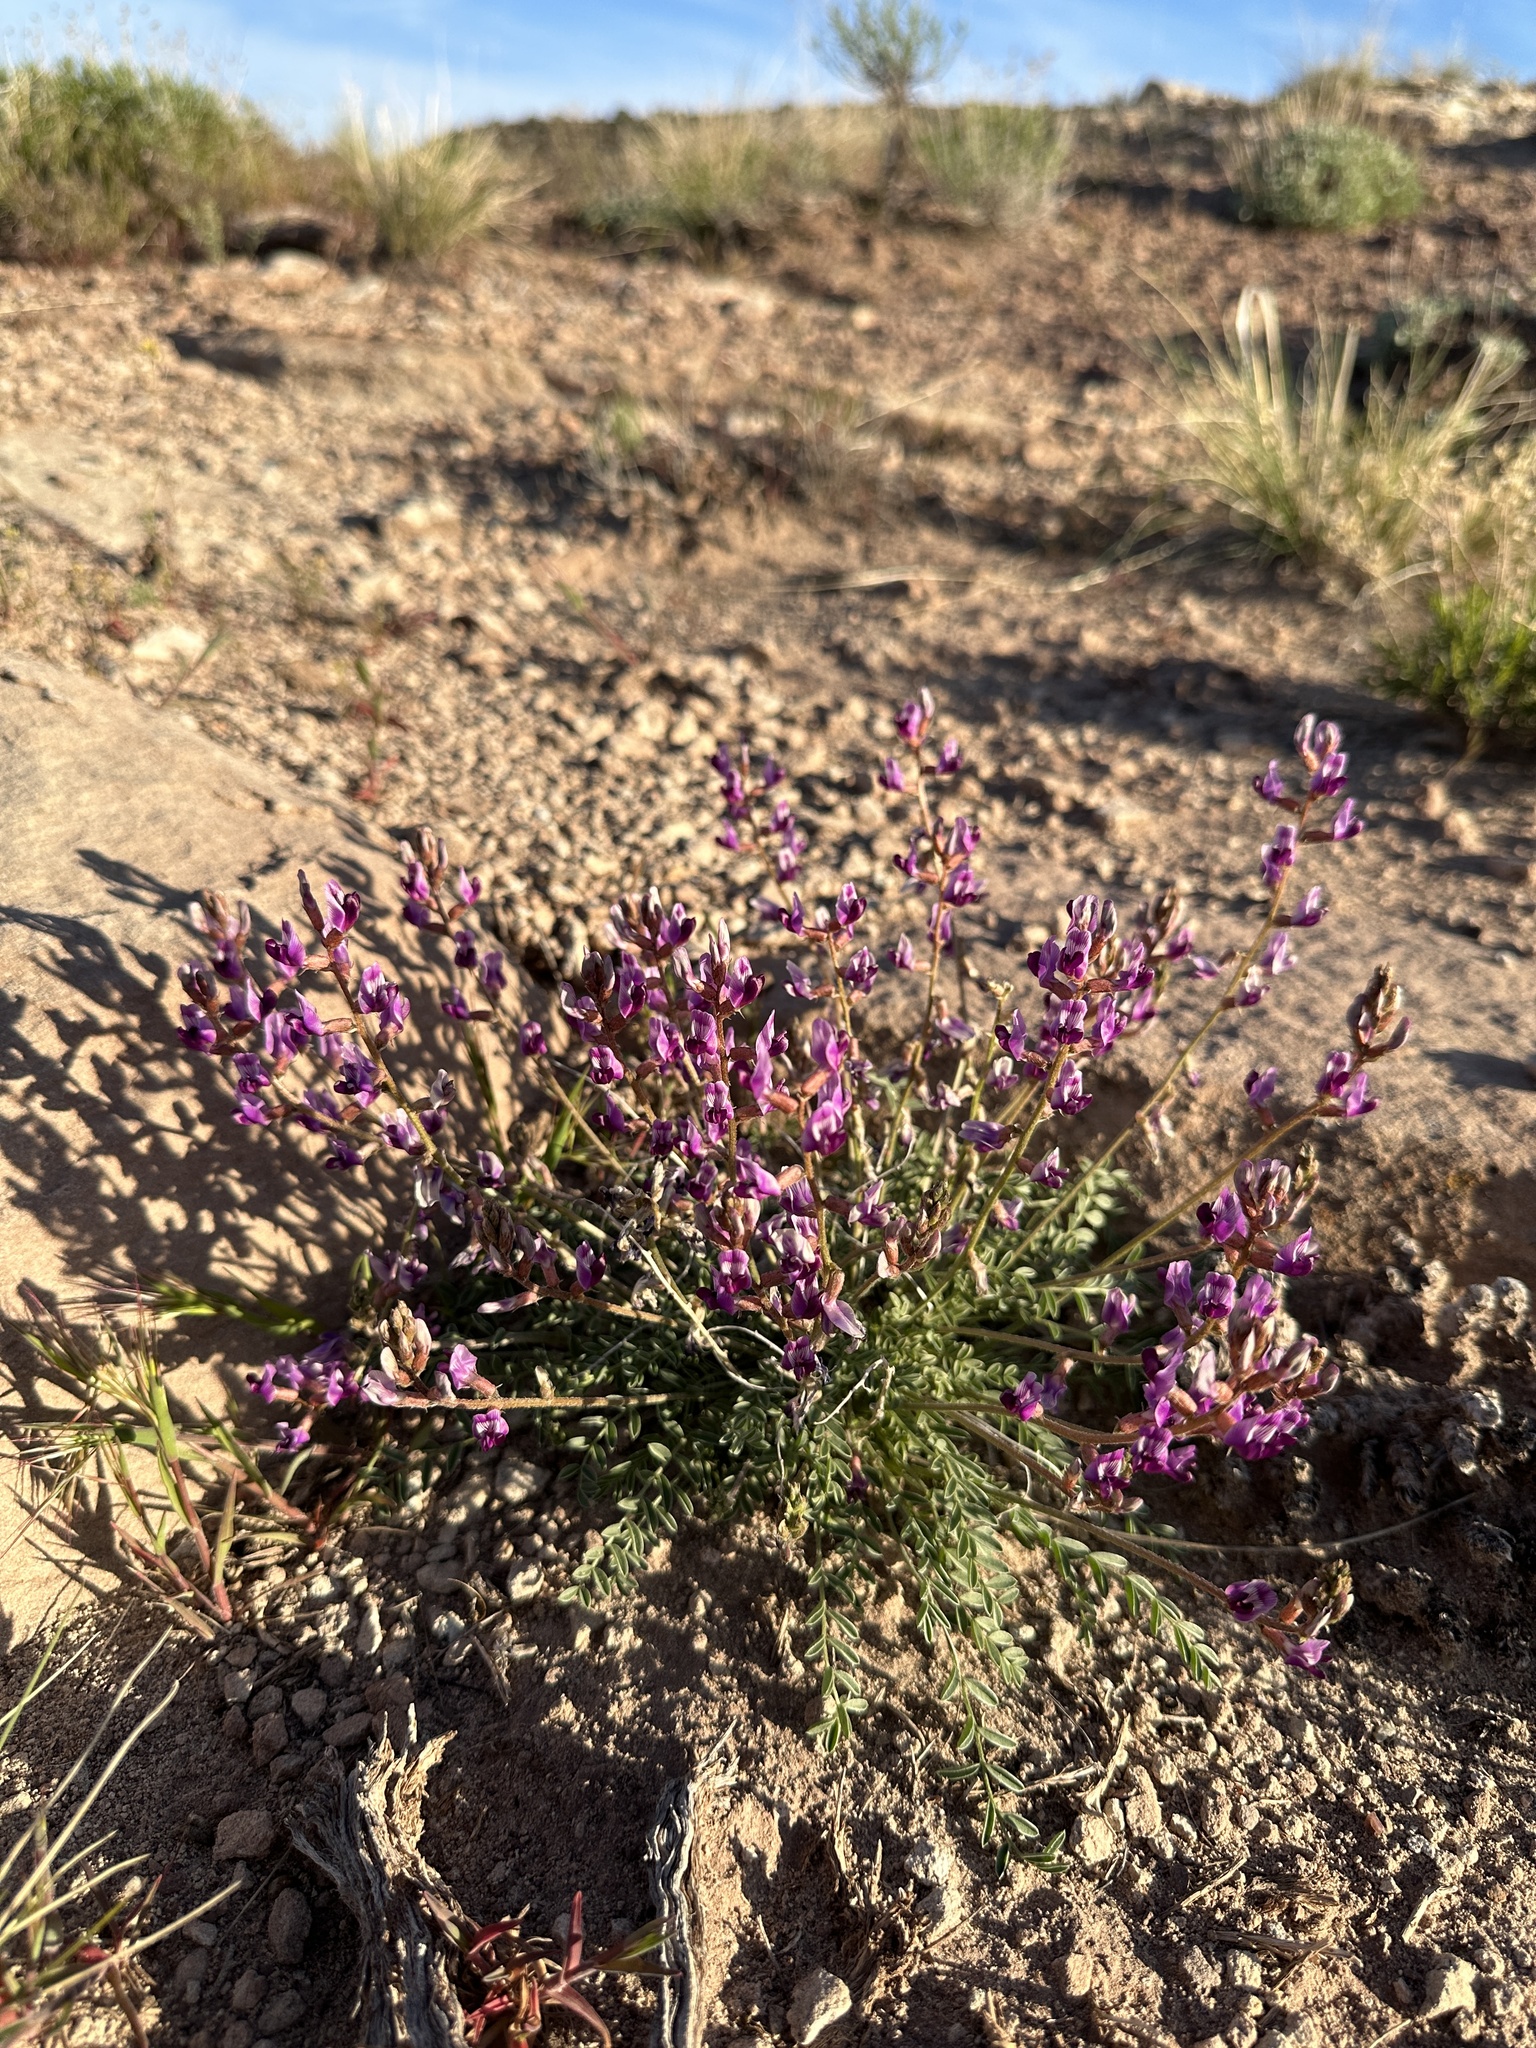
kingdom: Plantae
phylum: Tracheophyta
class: Magnoliopsida
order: Fabales
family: Fabaceae
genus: Astragalus
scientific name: Astragalus desperatus
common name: Rimrock milk-vetch
